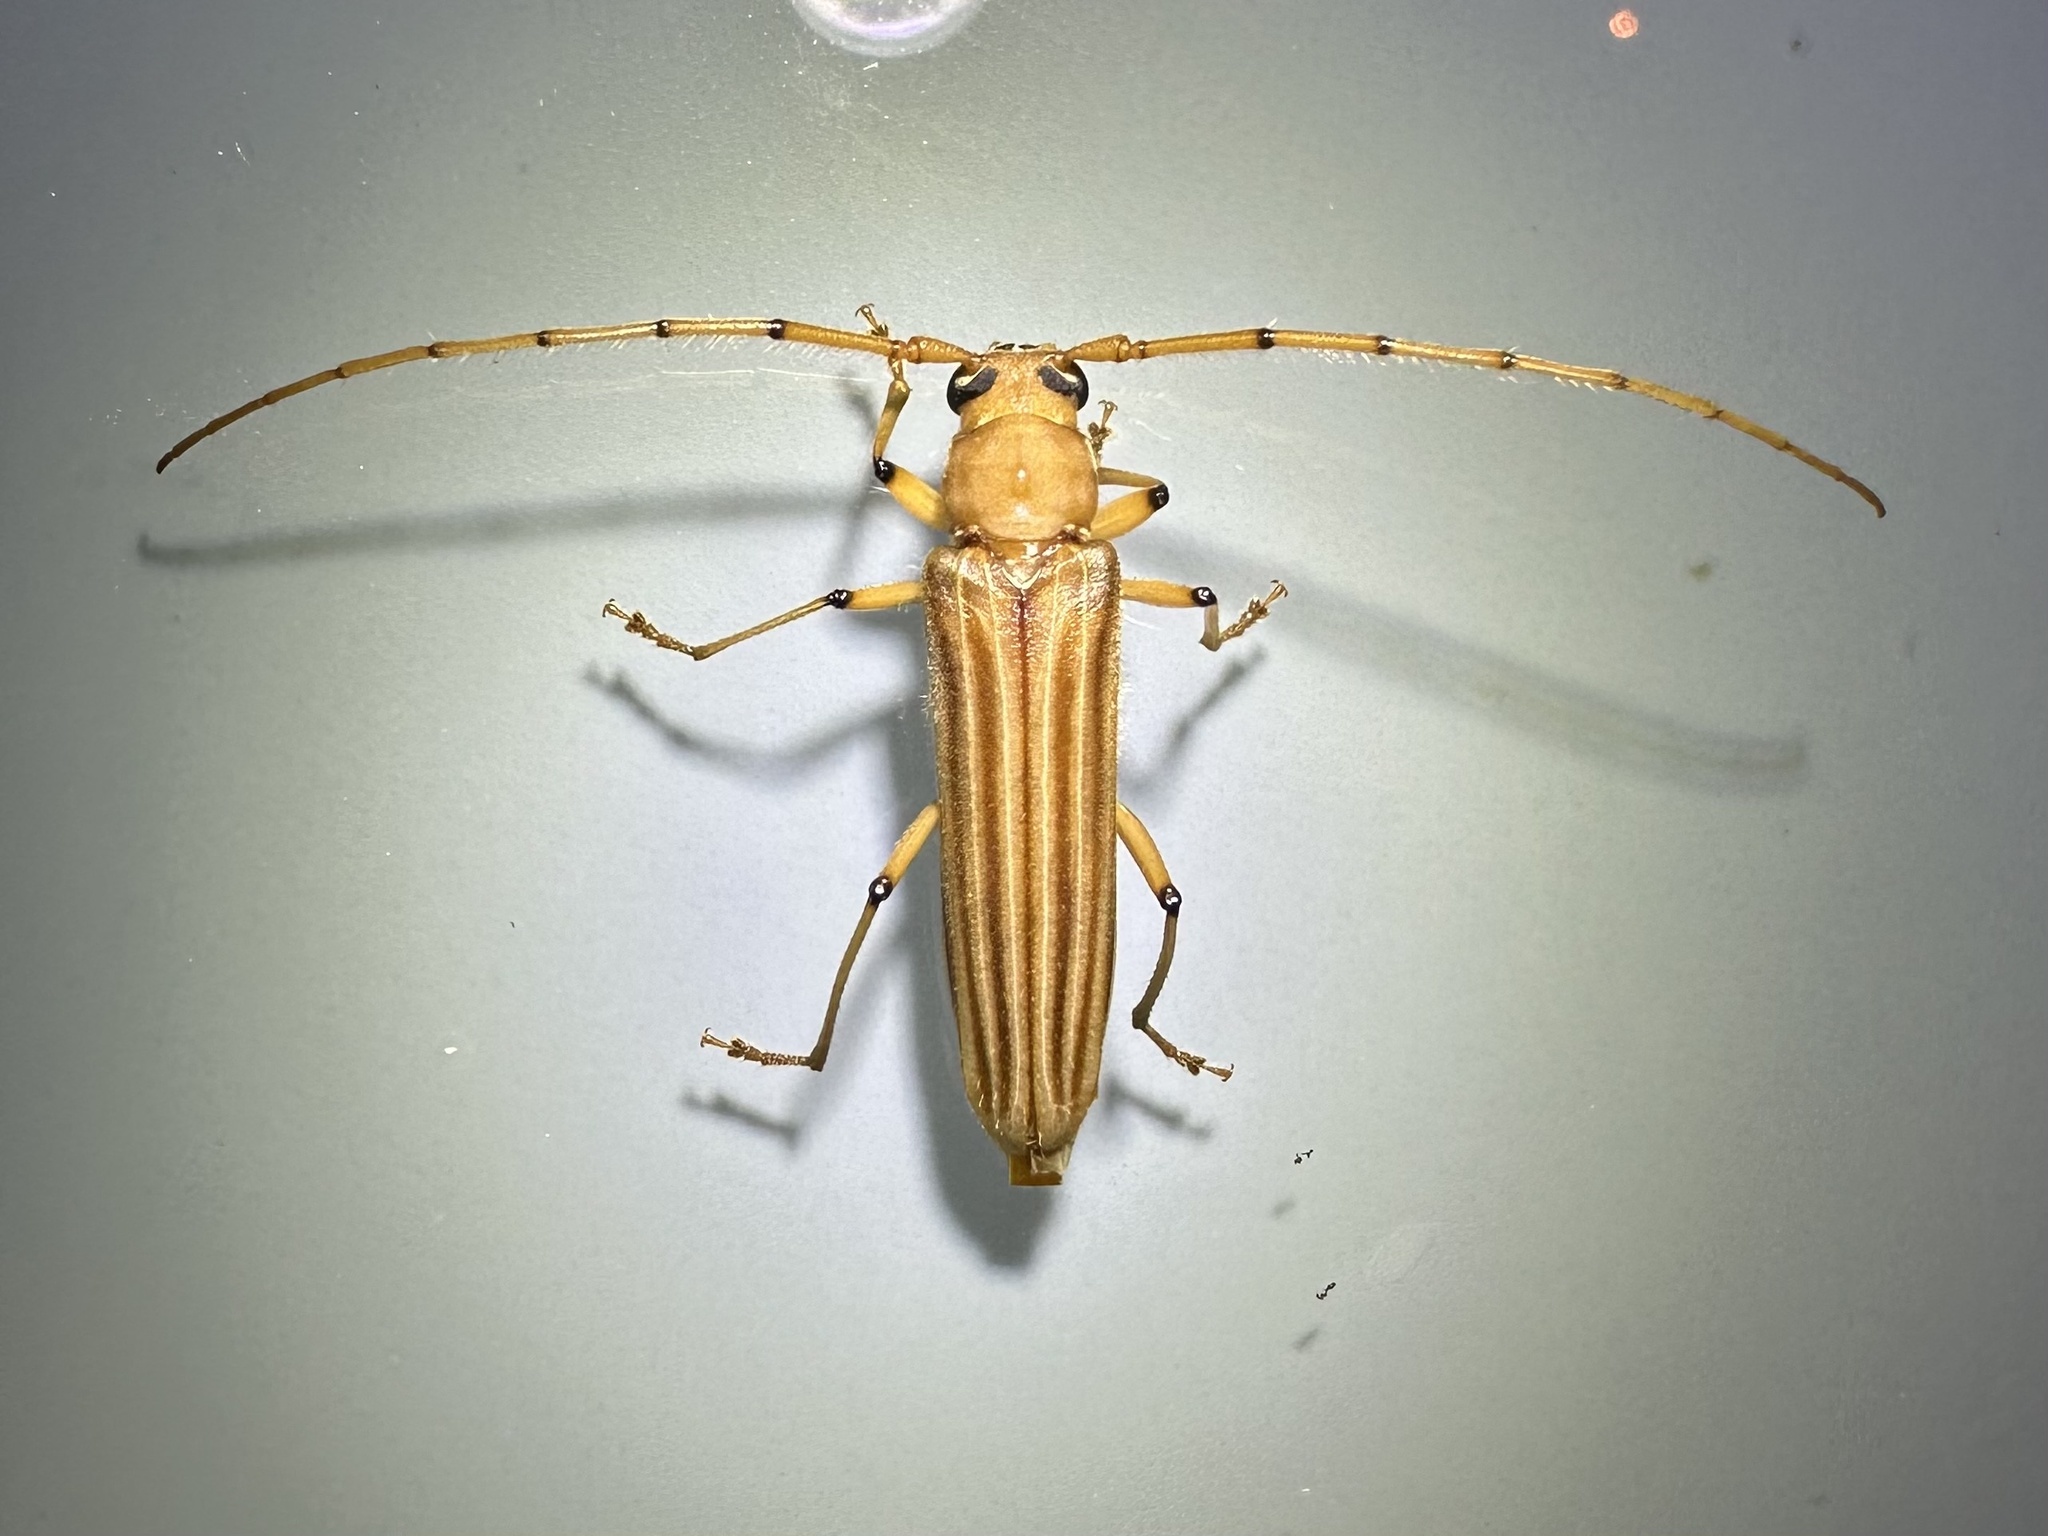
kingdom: Animalia
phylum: Arthropoda
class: Insecta
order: Coleoptera
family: Cerambycidae
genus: Malacopterus
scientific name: Malacopterus tenellus
